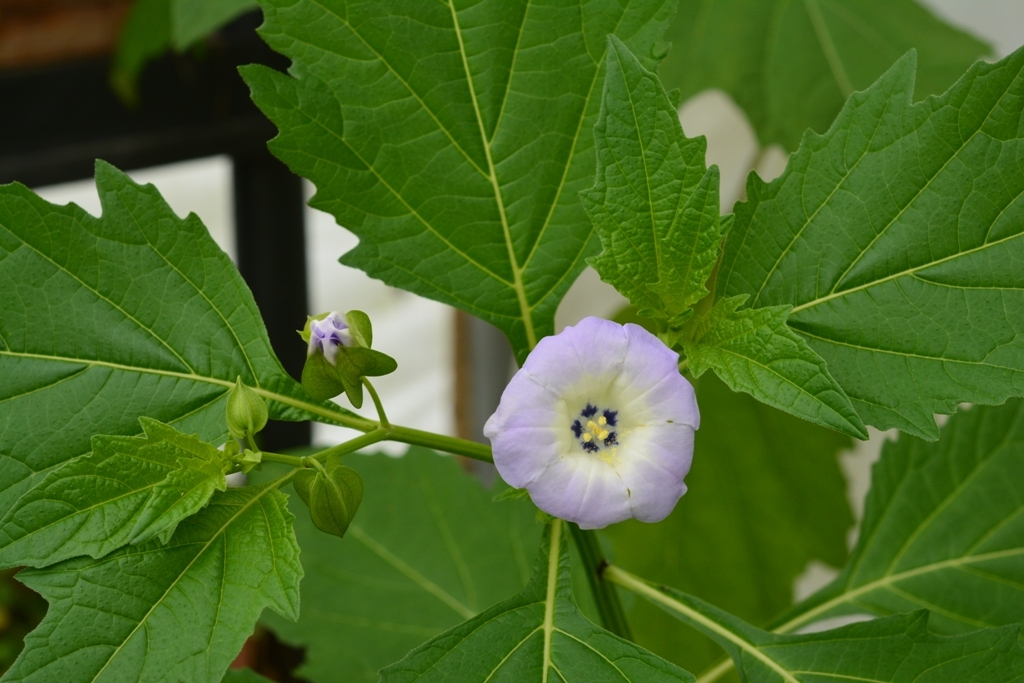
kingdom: Plantae
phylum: Tracheophyta
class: Magnoliopsida
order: Solanales
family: Solanaceae
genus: Nicandra
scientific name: Nicandra physalodes
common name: Apple-of-peru
